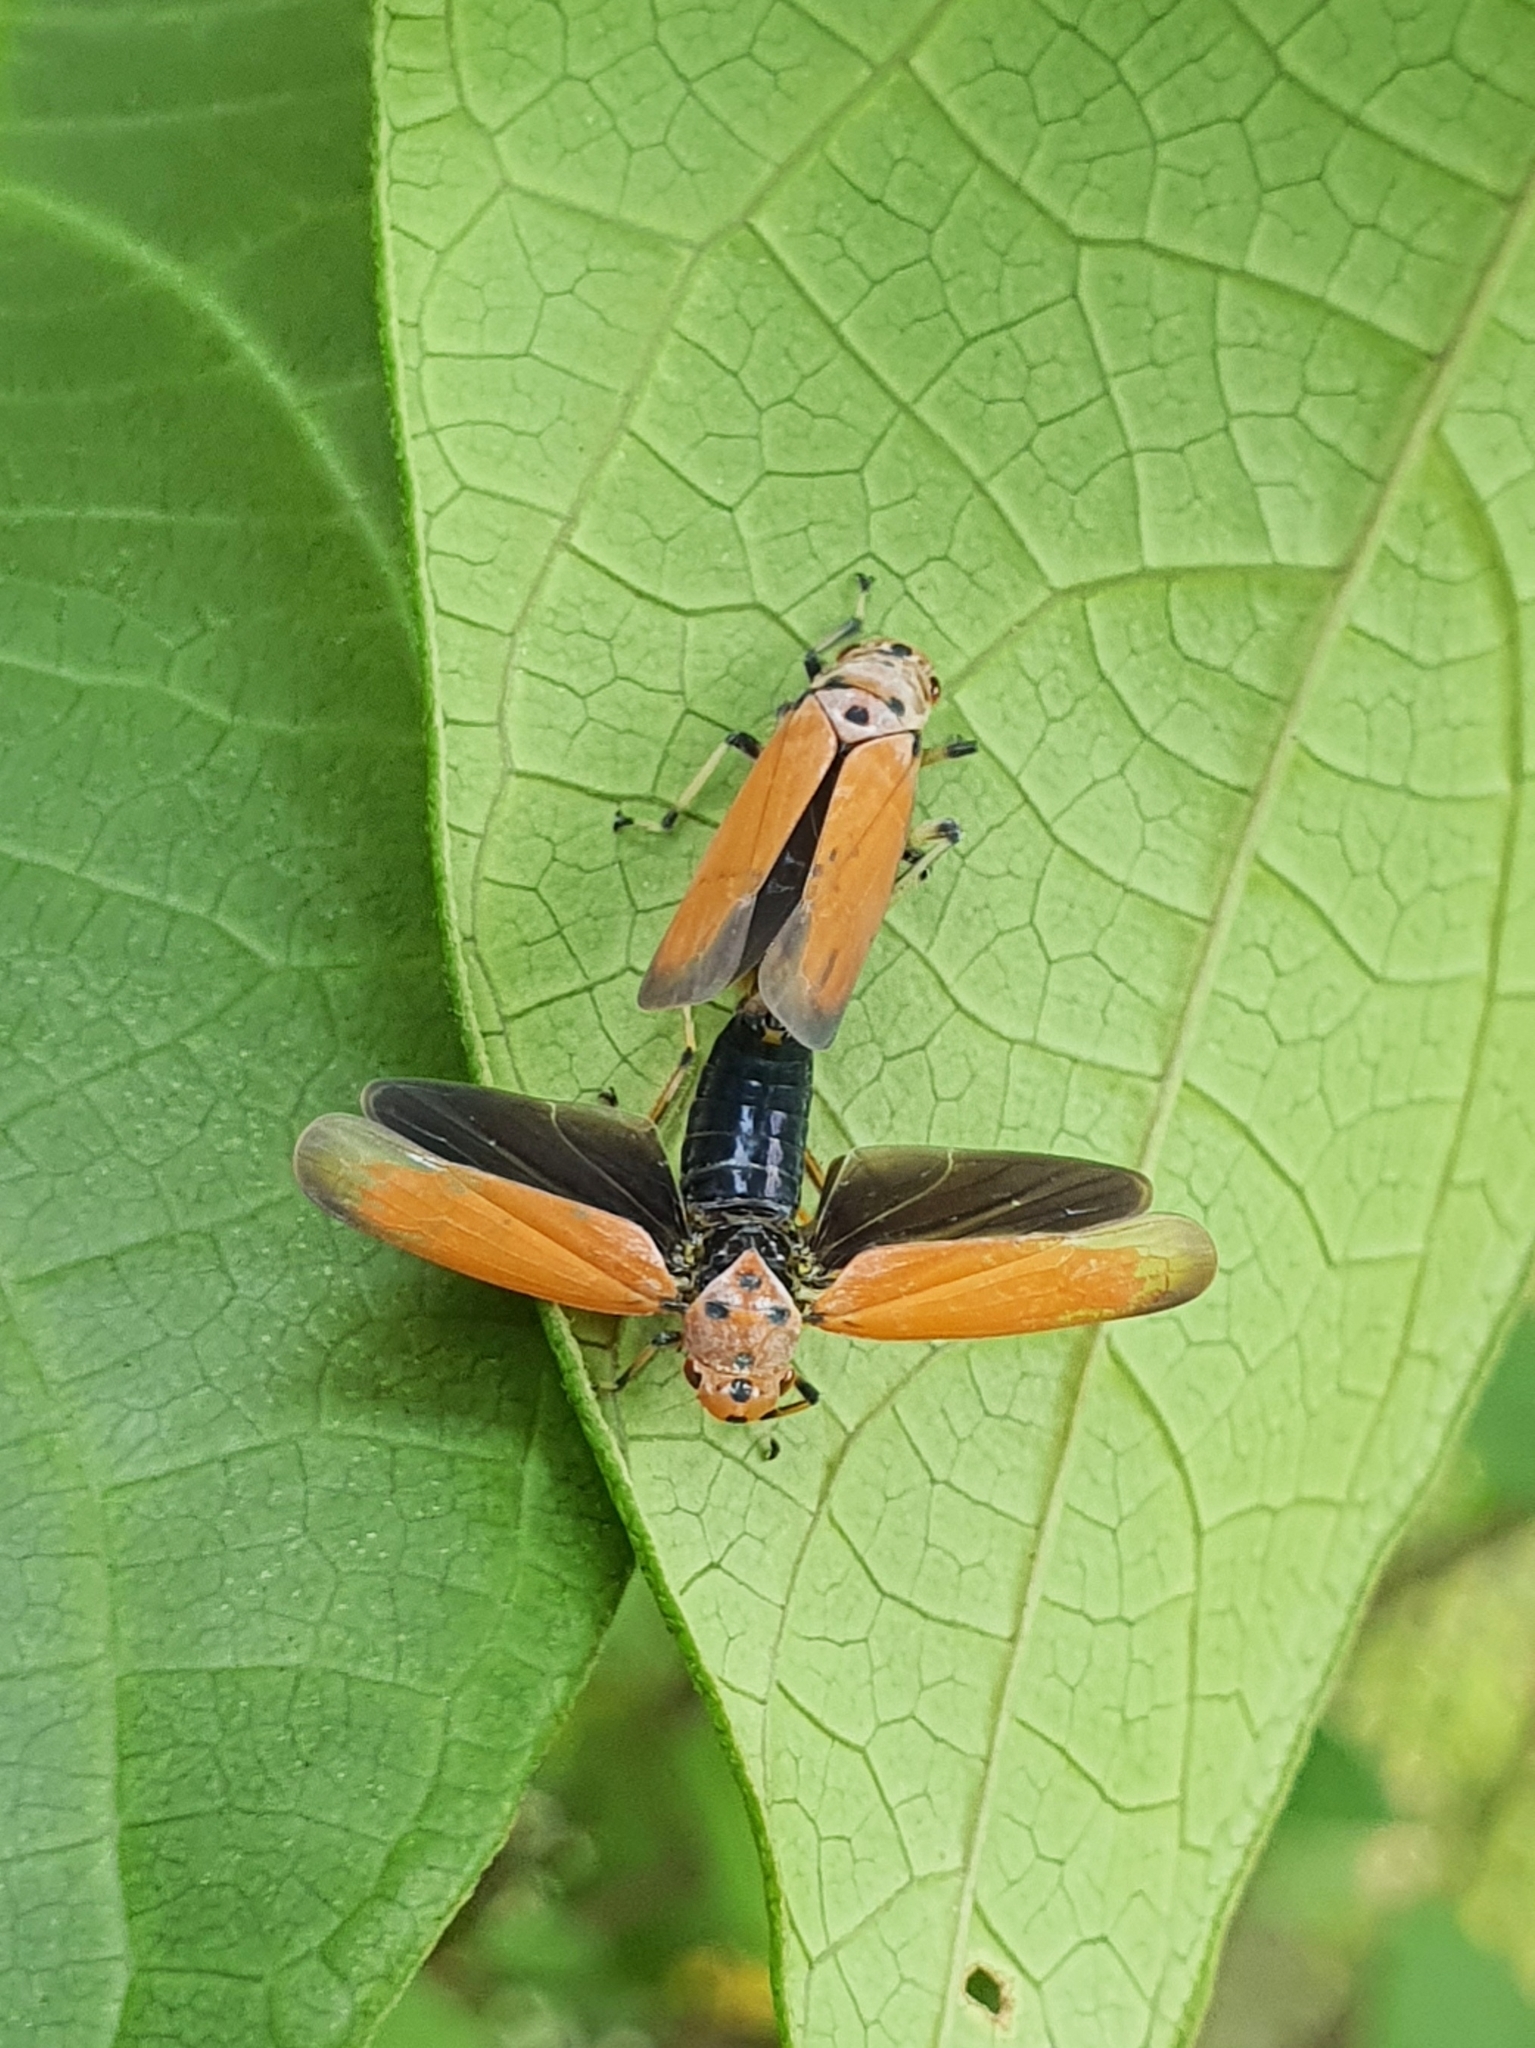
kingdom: Animalia
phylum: Arthropoda
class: Insecta
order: Hemiptera
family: Cicadellidae
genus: Bothrogonia
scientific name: Bothrogonia addita
